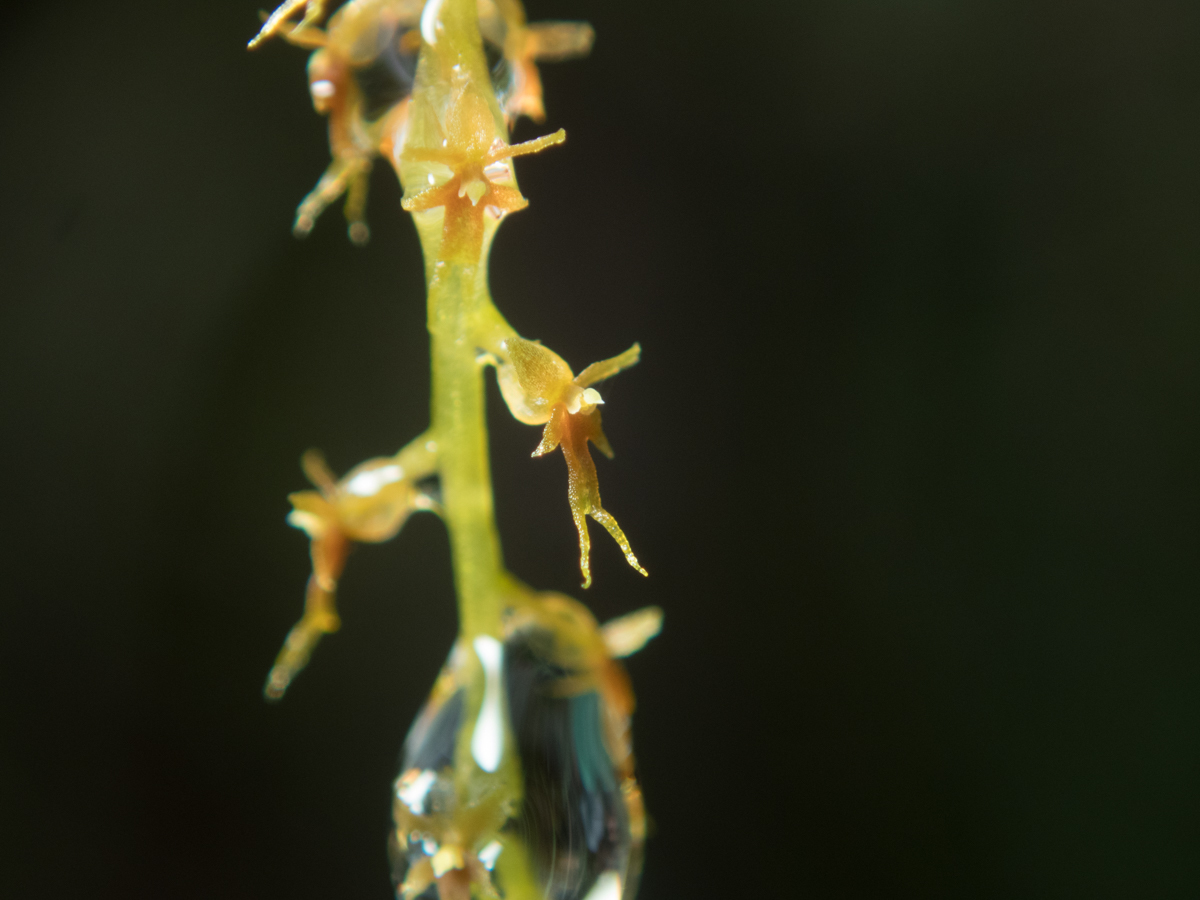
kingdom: Plantae
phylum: Tracheophyta
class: Liliopsida
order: Asparagales
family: Orchidaceae
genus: Oberonia
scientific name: Oberonia falcata
